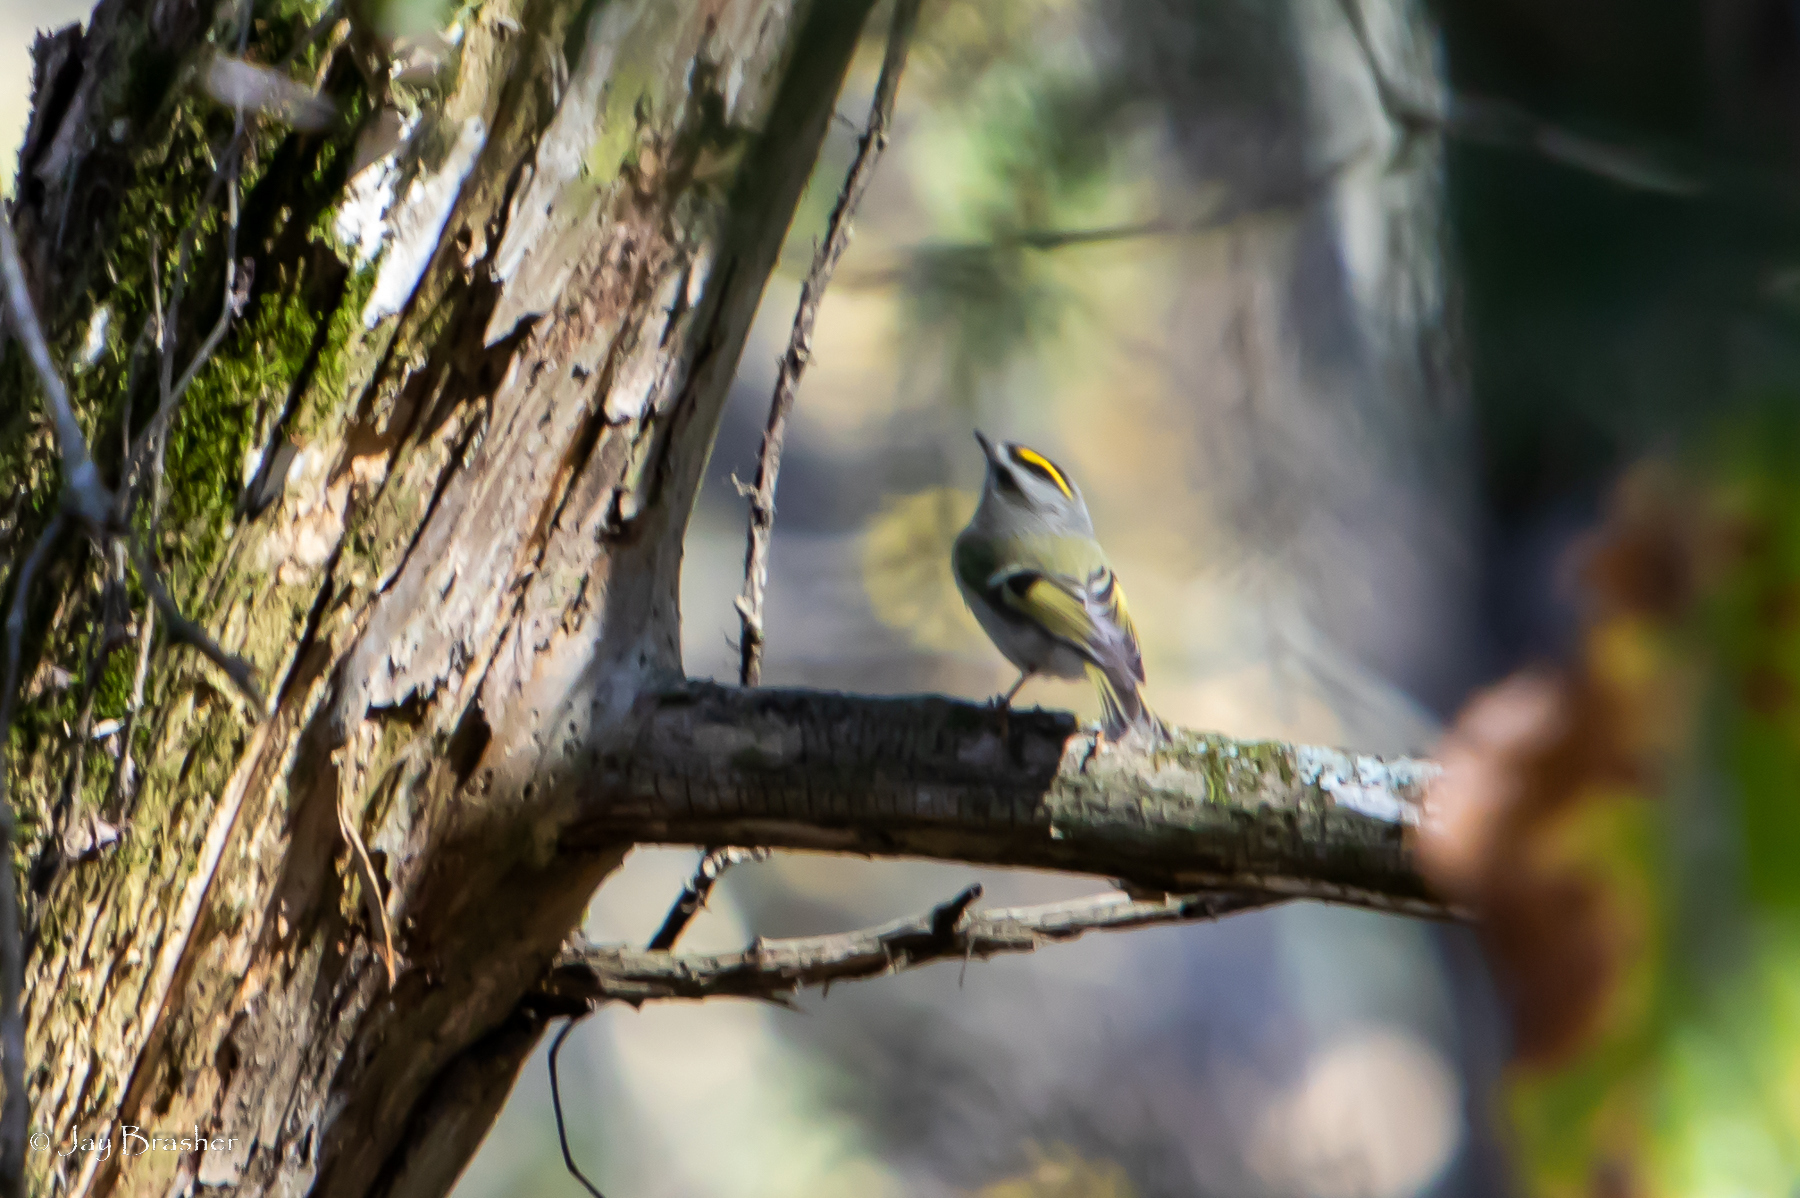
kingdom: Animalia
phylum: Chordata
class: Aves
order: Passeriformes
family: Regulidae
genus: Regulus
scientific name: Regulus satrapa
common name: Golden-crowned kinglet
